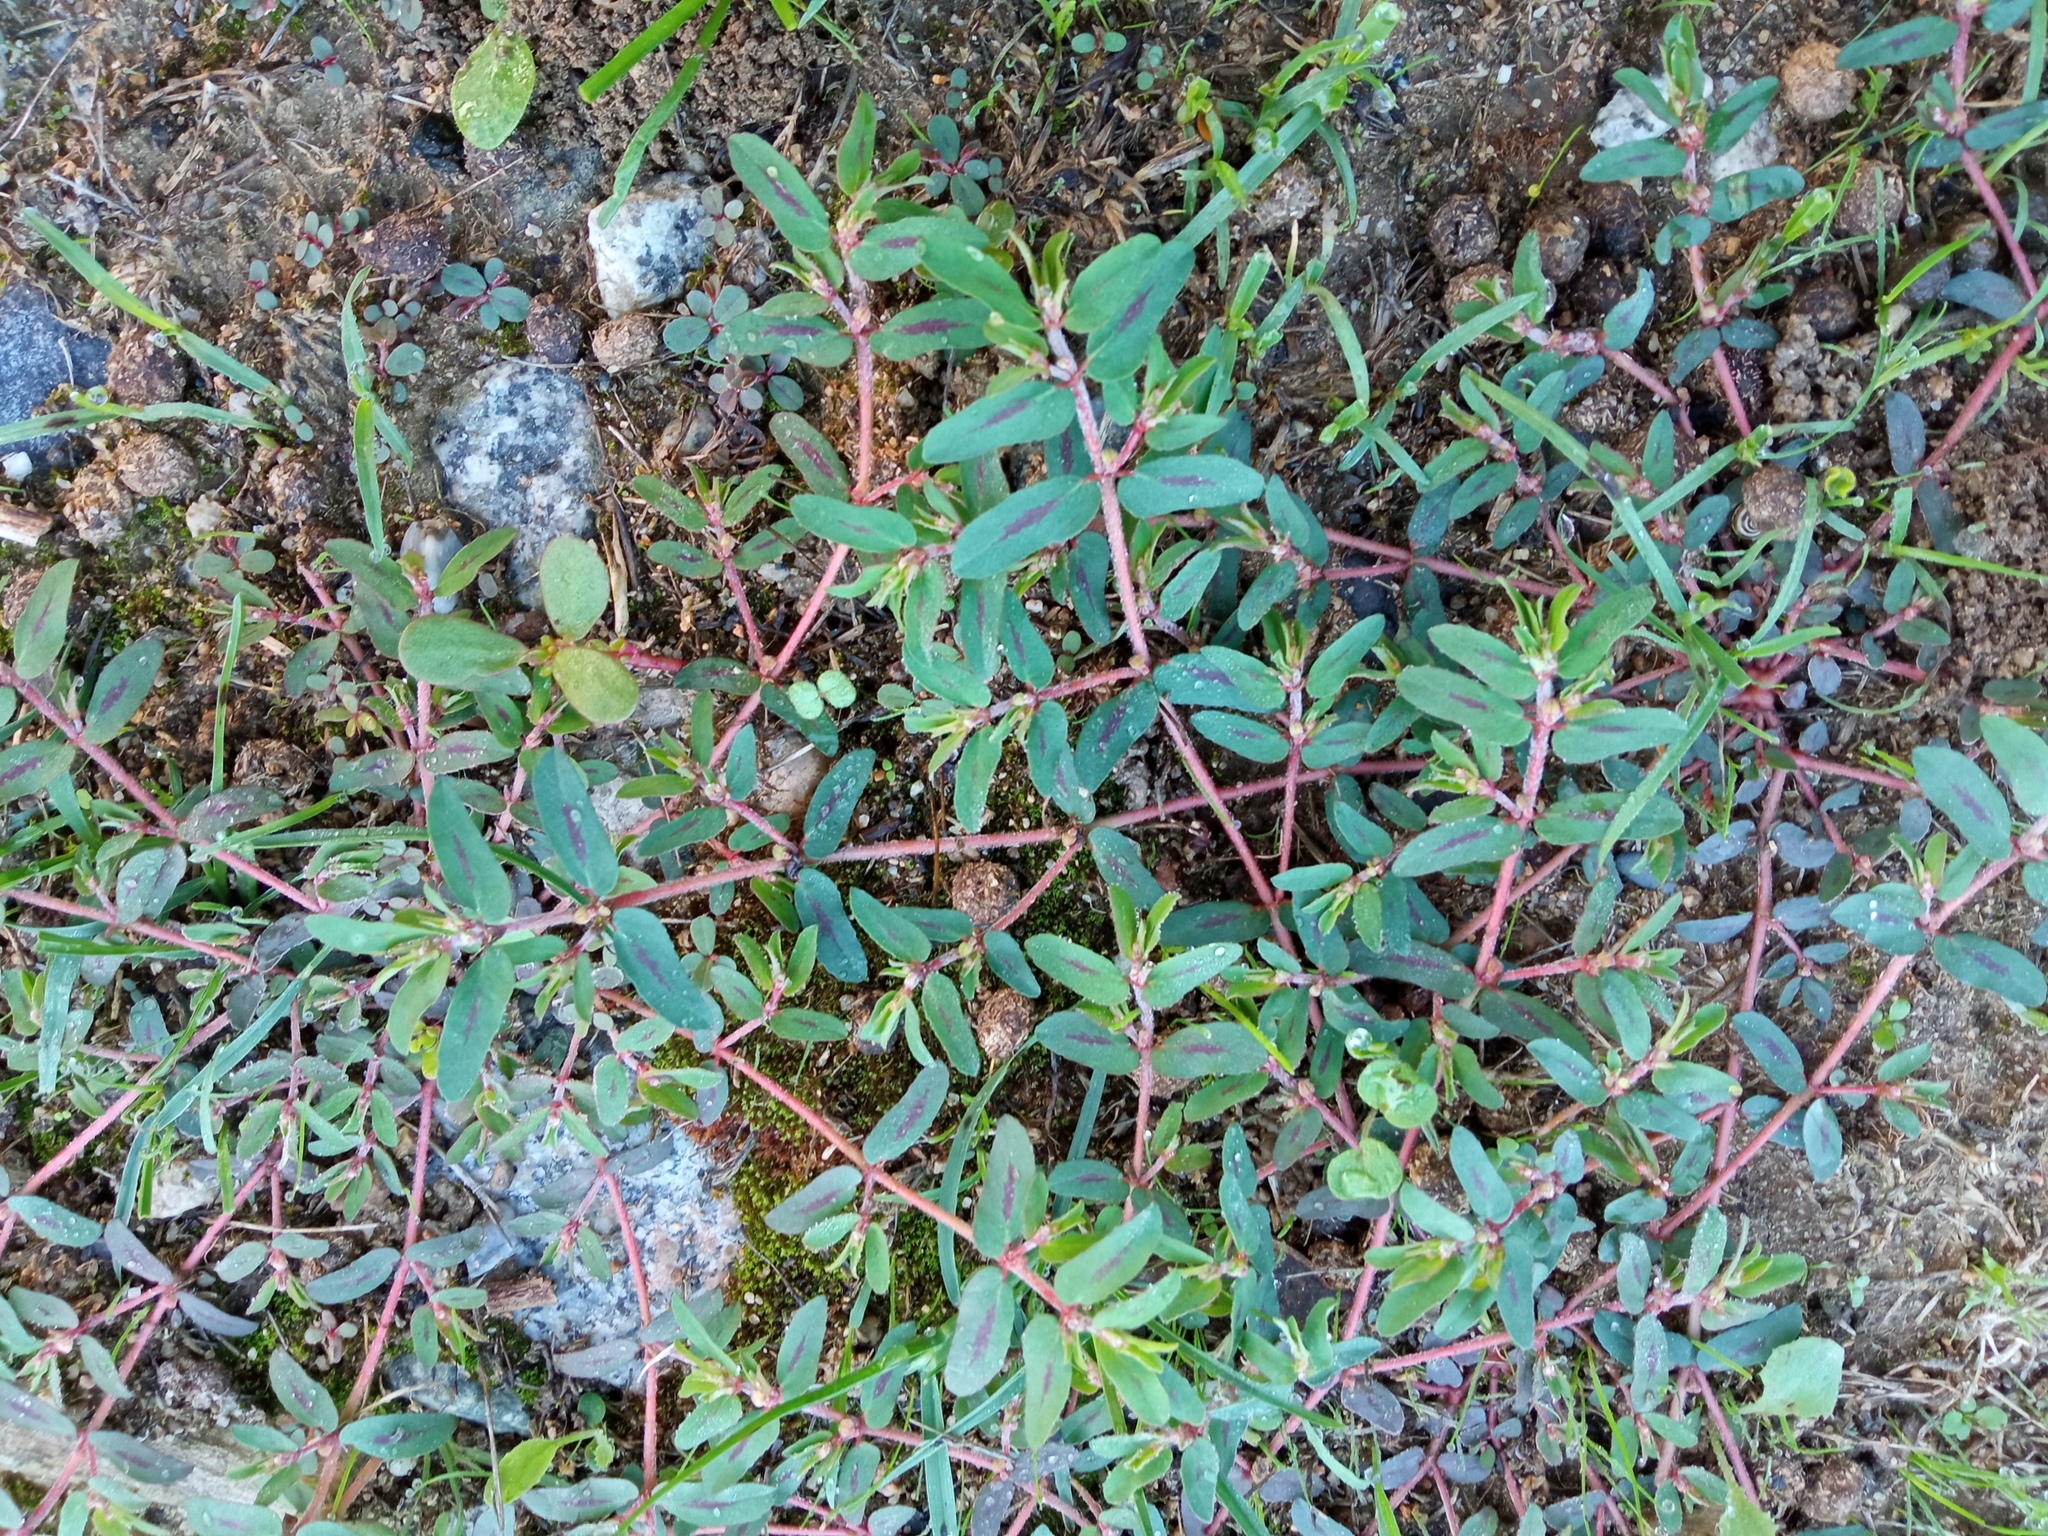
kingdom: Plantae
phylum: Tracheophyta
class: Magnoliopsida
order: Malpighiales
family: Euphorbiaceae
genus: Euphorbia
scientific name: Euphorbia maculata
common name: Spotted spurge
